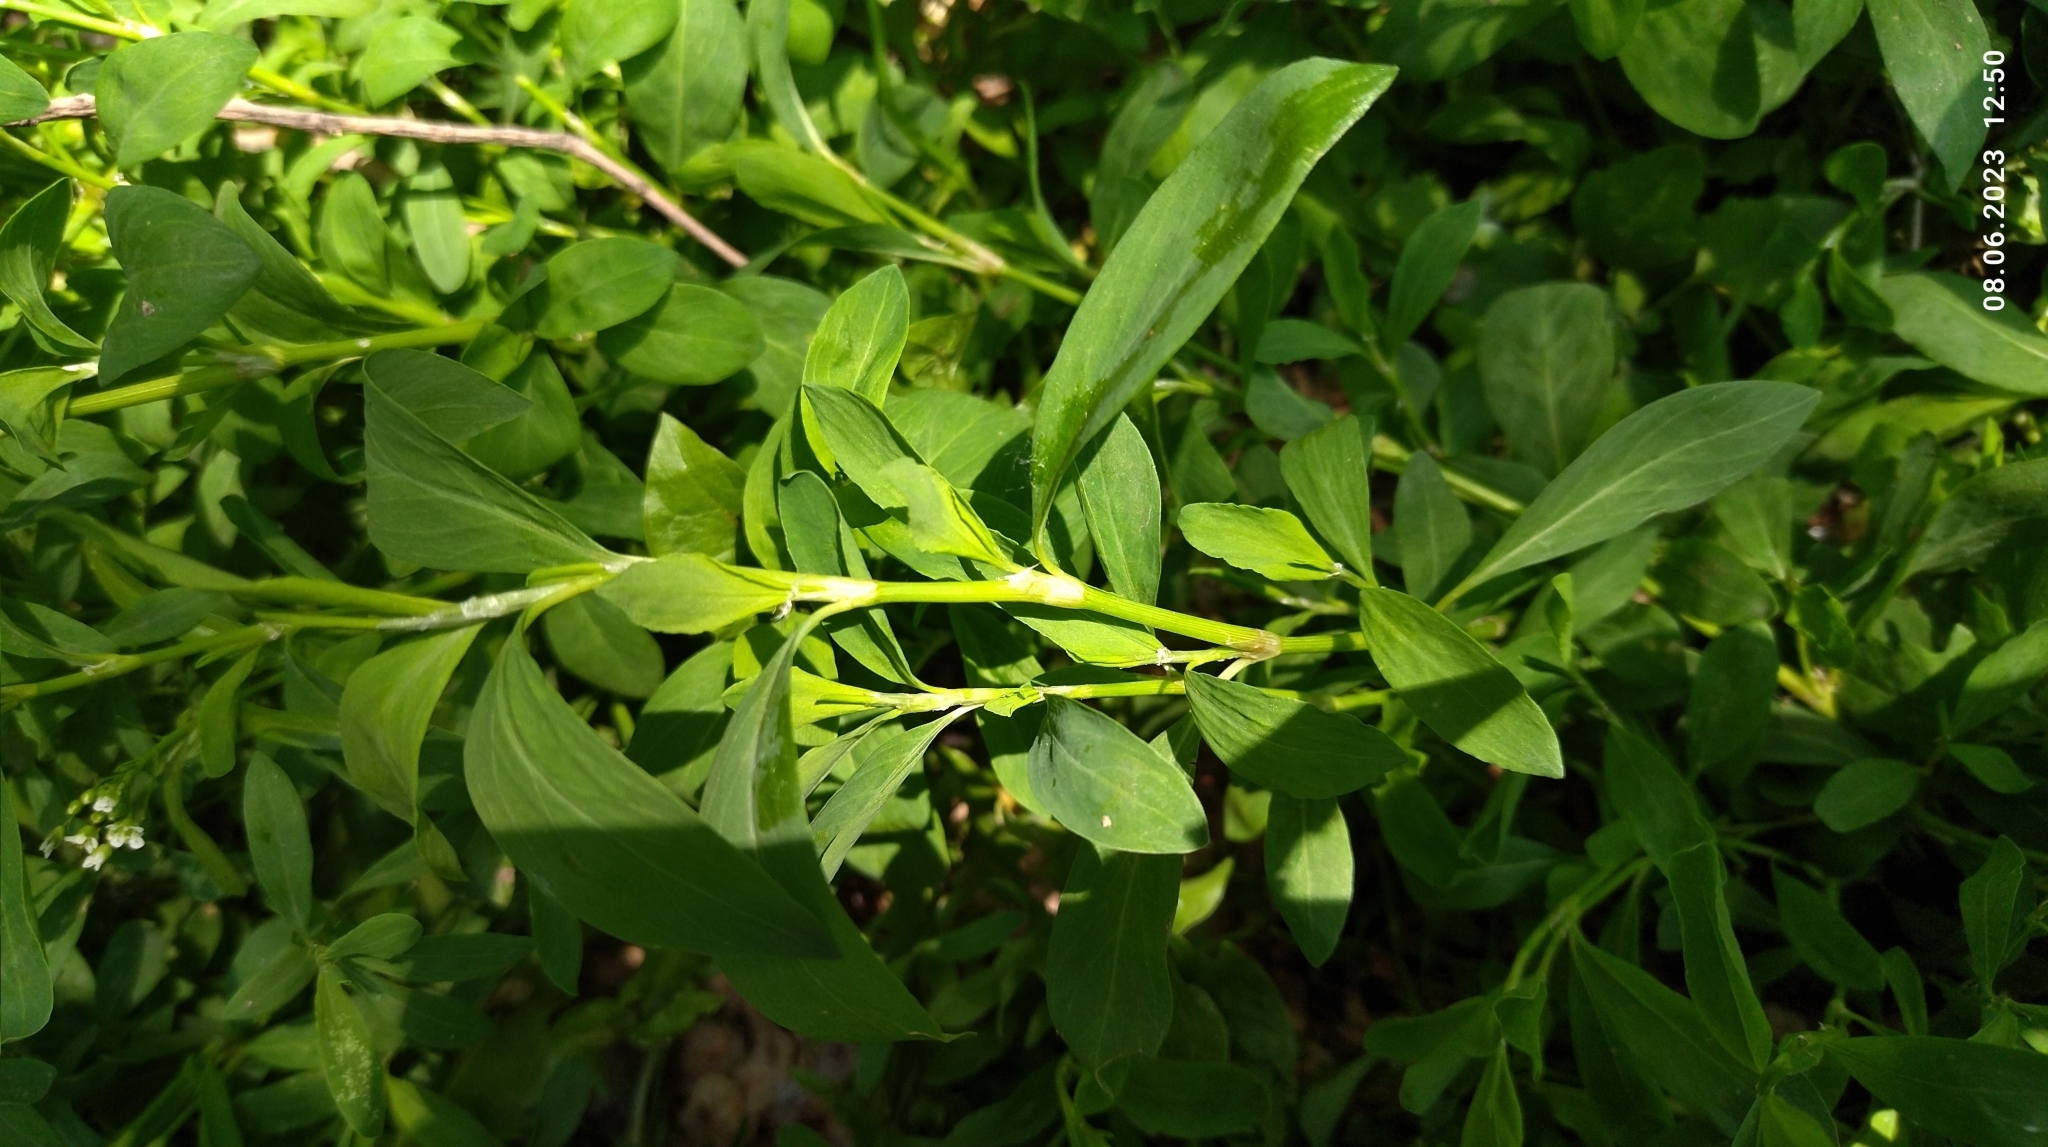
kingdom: Plantae
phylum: Tracheophyta
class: Magnoliopsida
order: Caryophyllales
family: Polygonaceae
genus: Polygonum
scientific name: Polygonum
